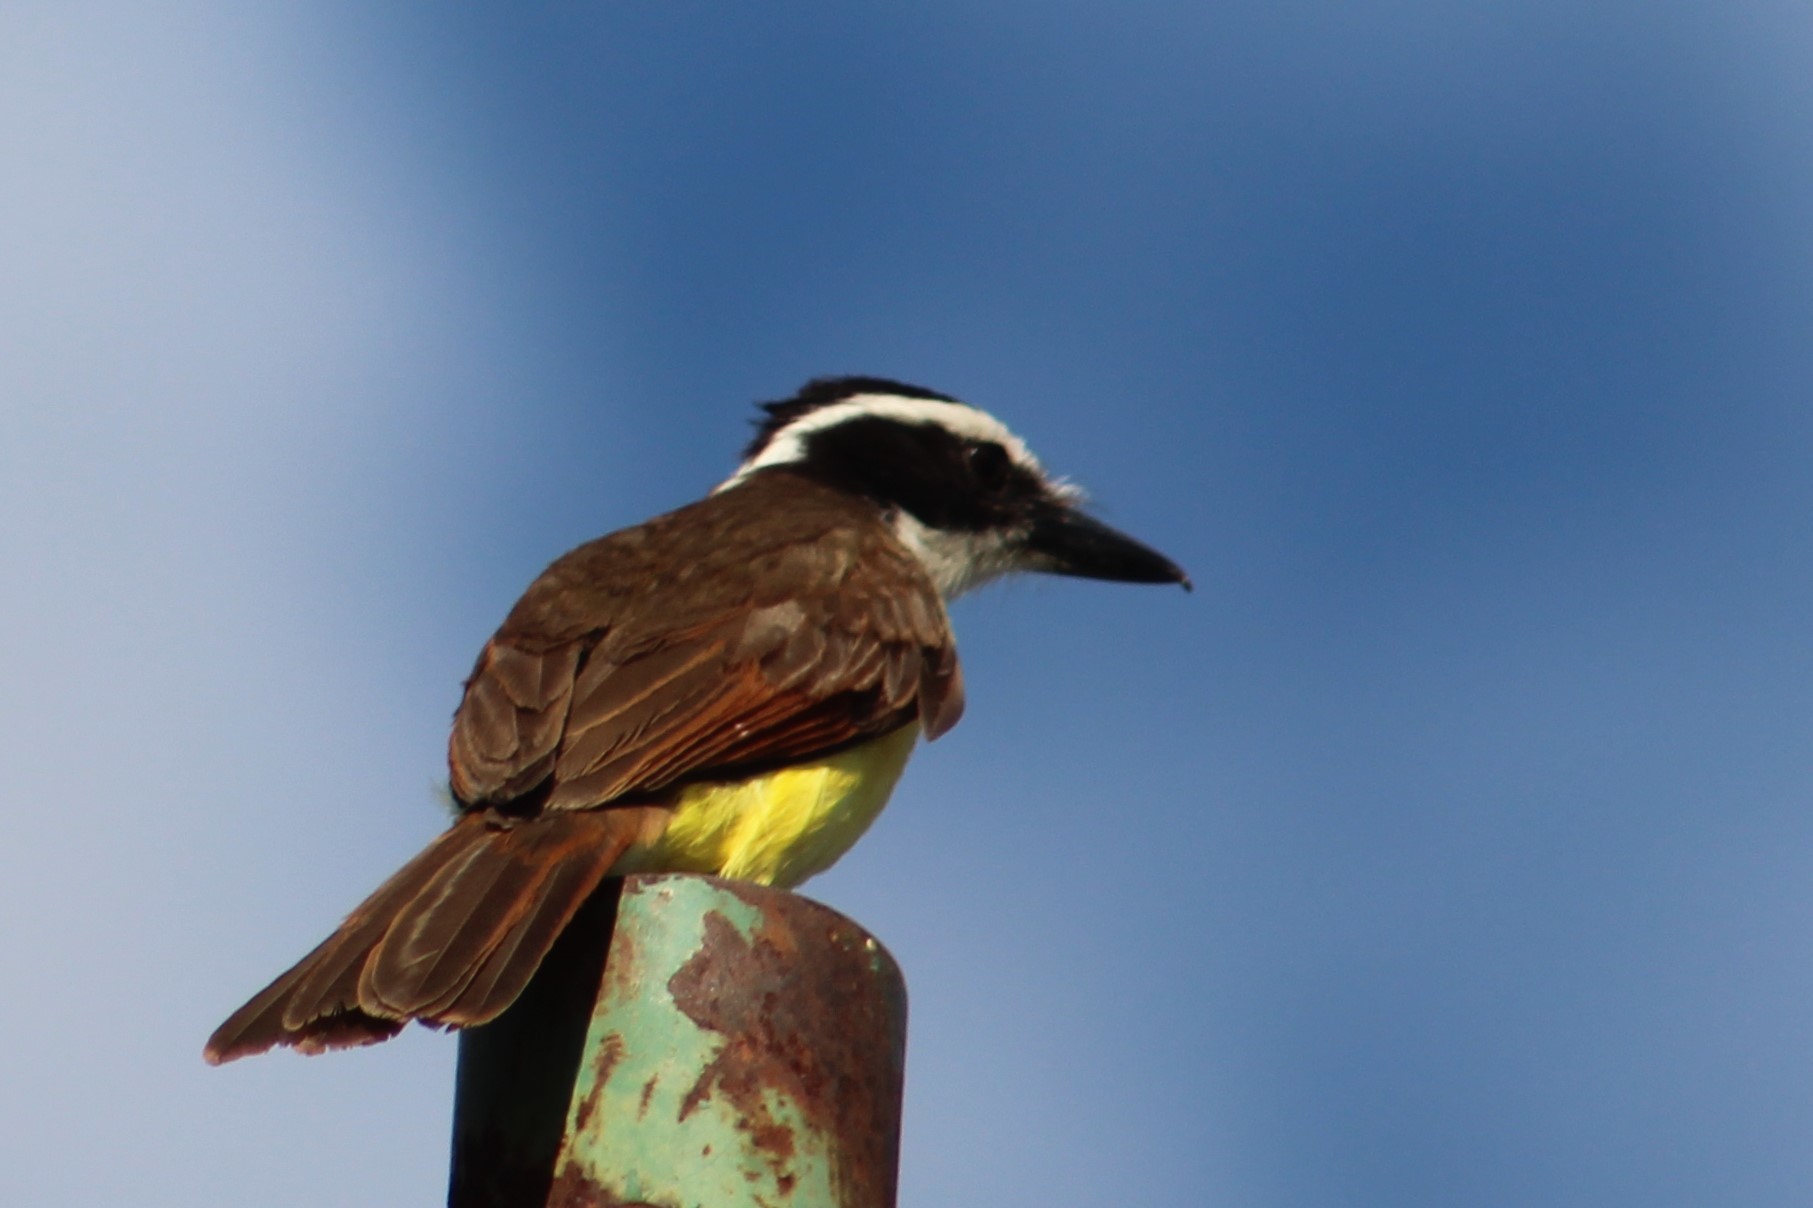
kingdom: Animalia
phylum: Chordata
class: Aves
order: Passeriformes
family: Tyrannidae
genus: Pitangus
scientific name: Pitangus sulphuratus
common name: Great kiskadee
